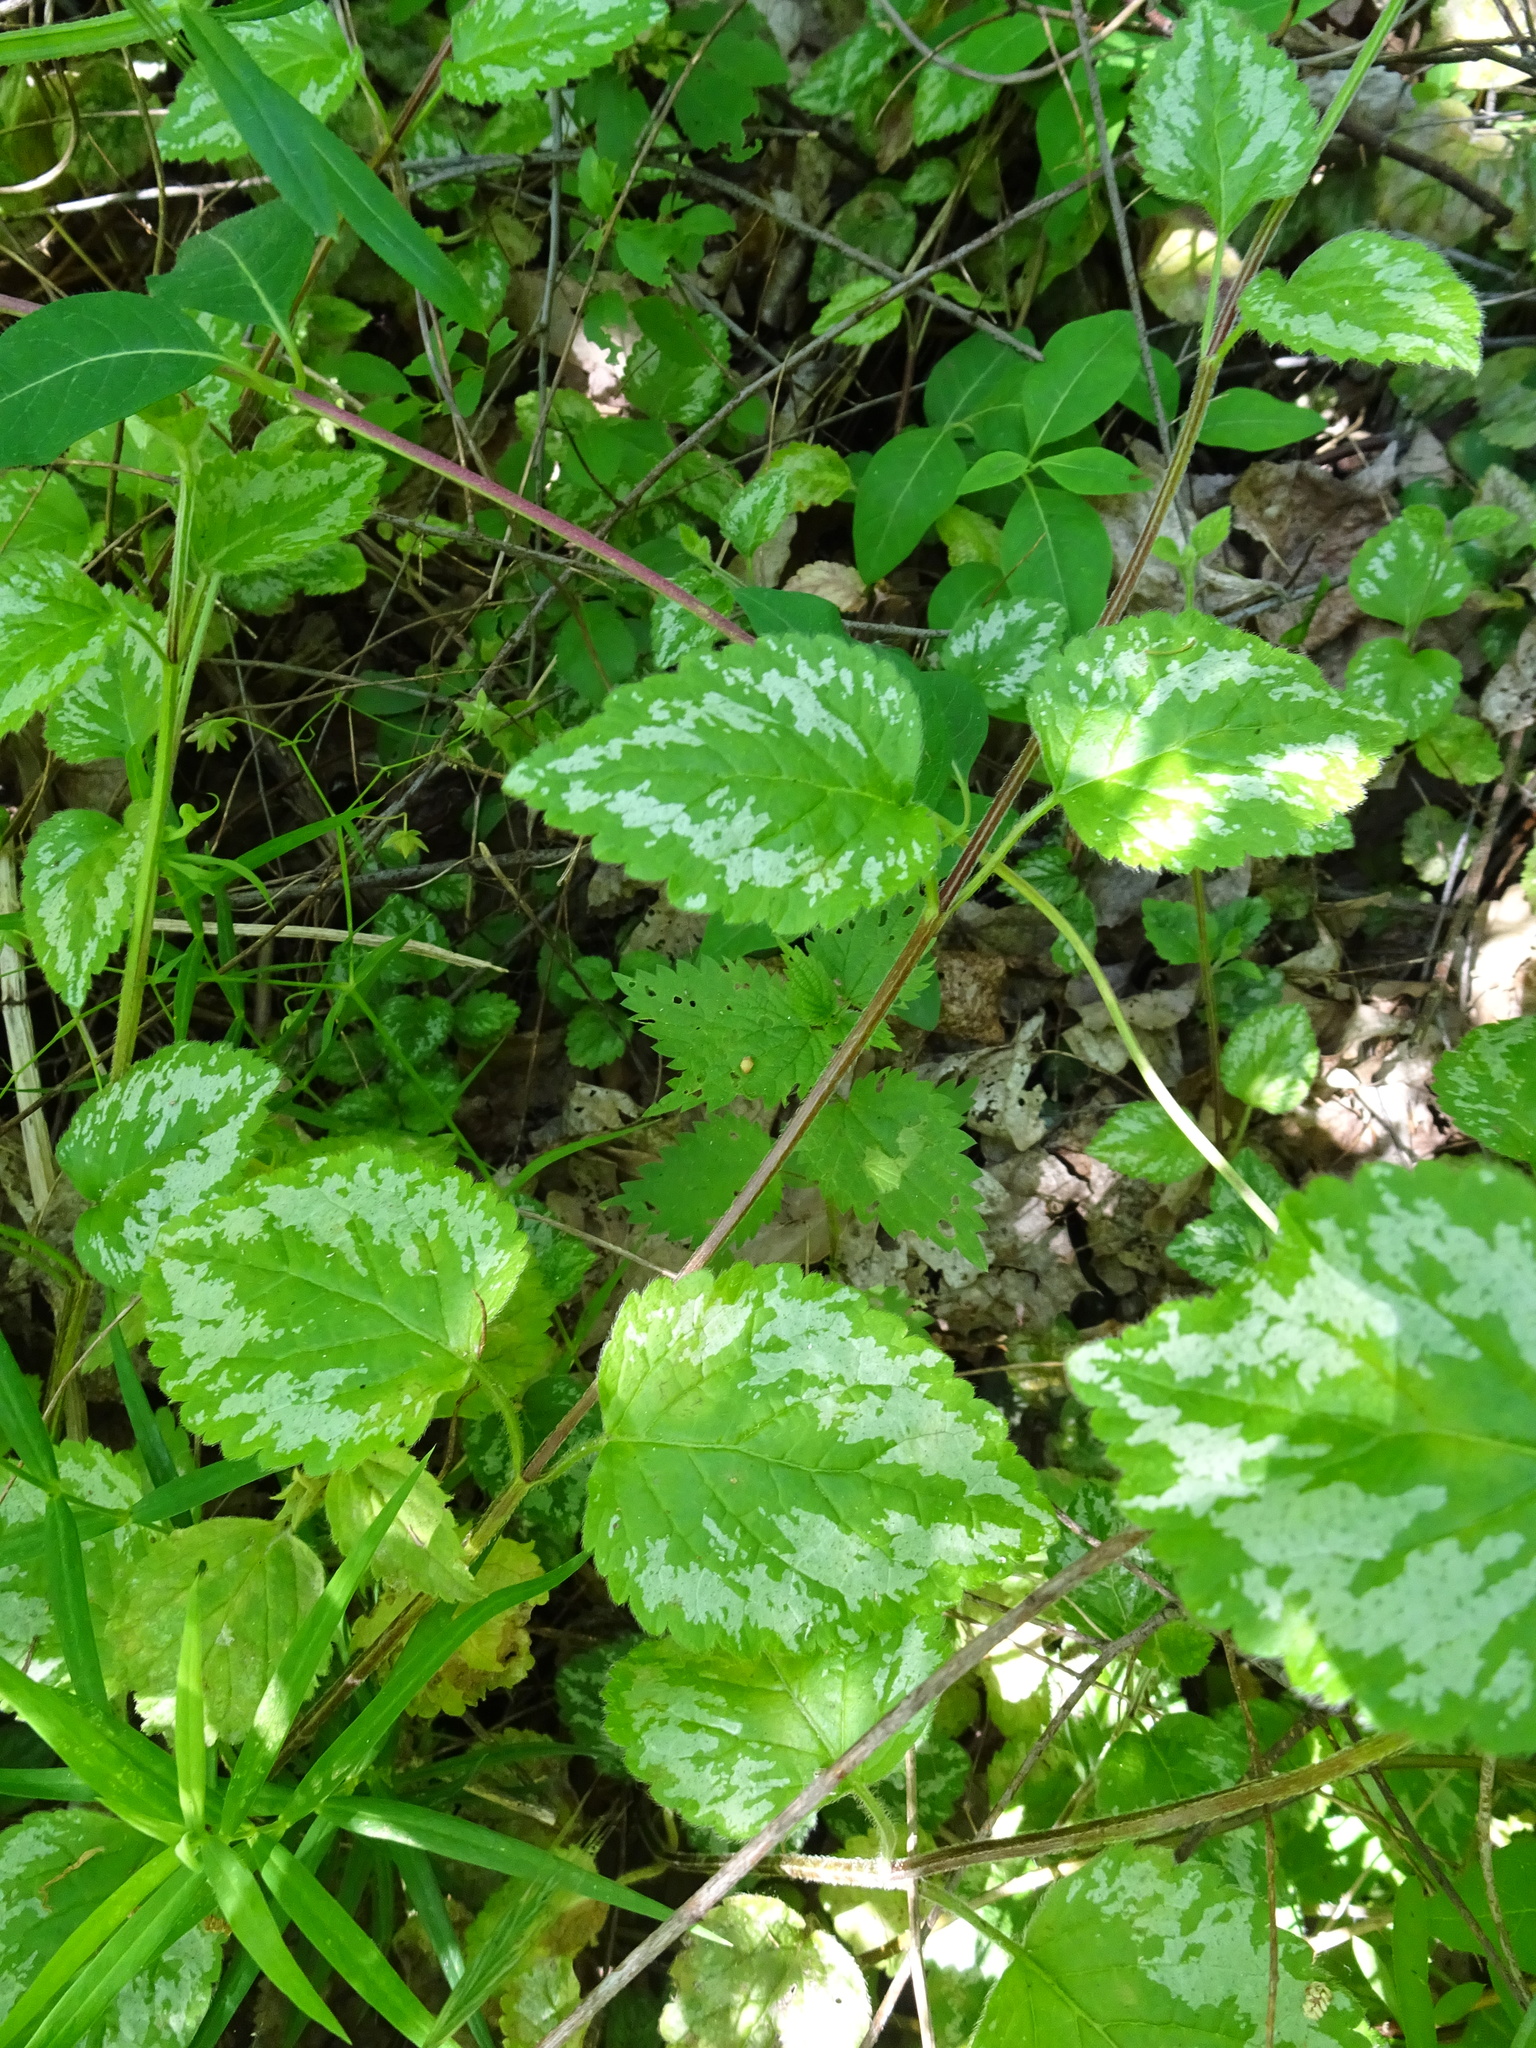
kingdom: Plantae
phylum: Tracheophyta
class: Magnoliopsida
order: Lamiales
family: Lamiaceae
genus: Lamium
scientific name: Lamium galeobdolon
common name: Yellow archangel
